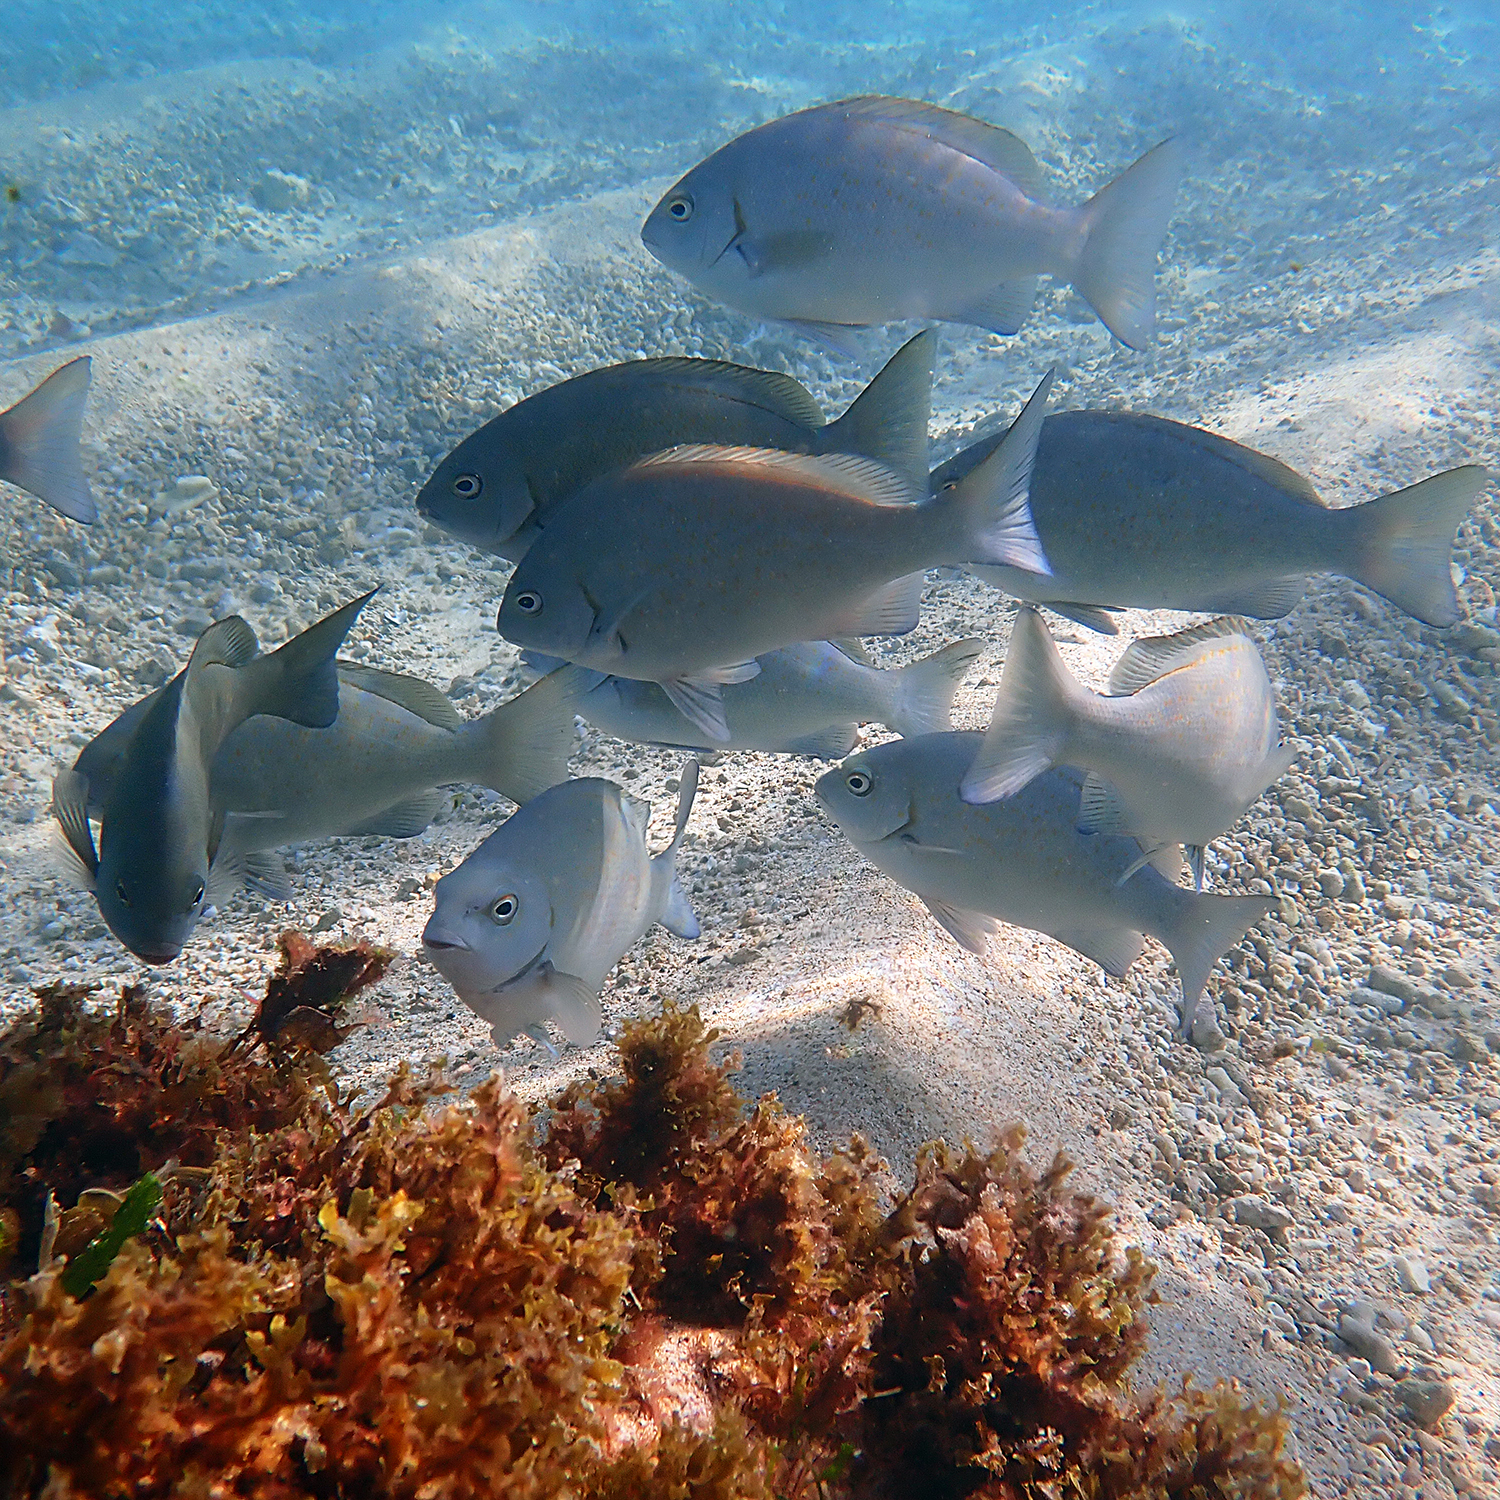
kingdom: Animalia
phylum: Chordata
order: Perciformes
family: Kyphosidae
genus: Girella
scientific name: Girella cyanea
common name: Bluefish
